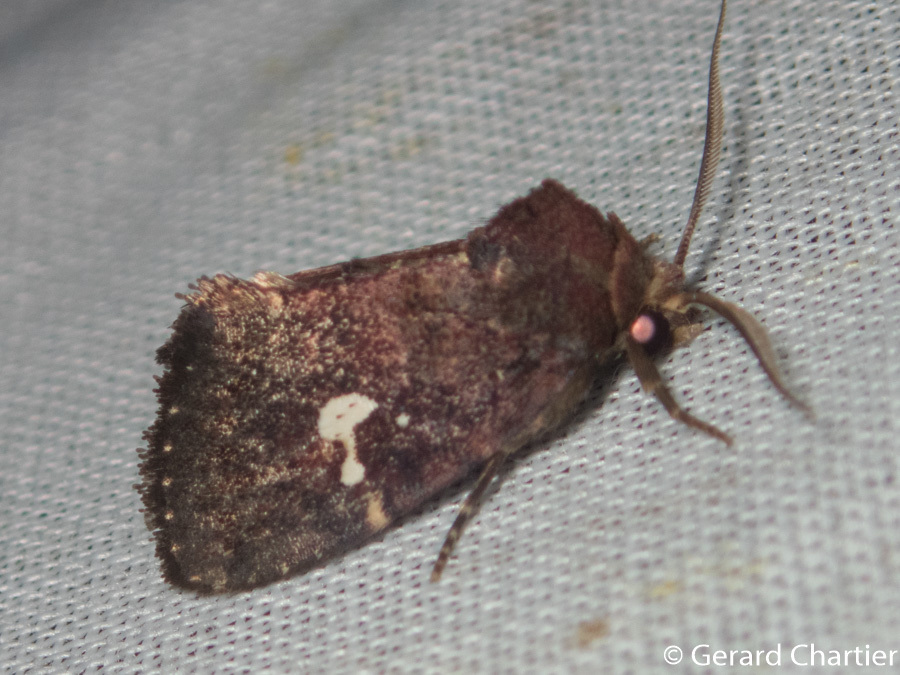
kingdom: Animalia
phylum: Arthropoda
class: Insecta
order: Lepidoptera
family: Noctuidae
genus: Elusa
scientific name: Elusa puncticeps
